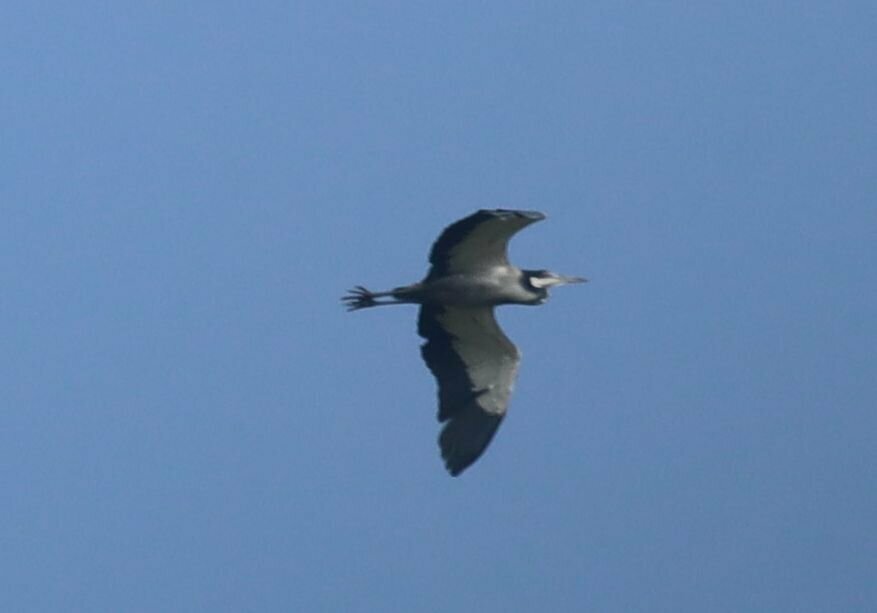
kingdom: Animalia
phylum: Chordata
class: Aves
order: Pelecaniformes
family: Ardeidae
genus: Ardea
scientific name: Ardea melanocephala
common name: Black-headed heron
